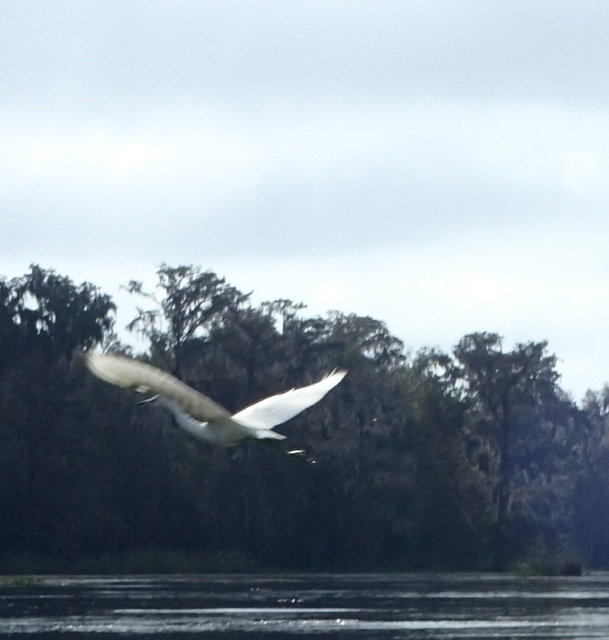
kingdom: Animalia
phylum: Chordata
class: Aves
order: Pelecaniformes
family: Ardeidae
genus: Egretta
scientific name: Egretta caerulea
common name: Little blue heron
